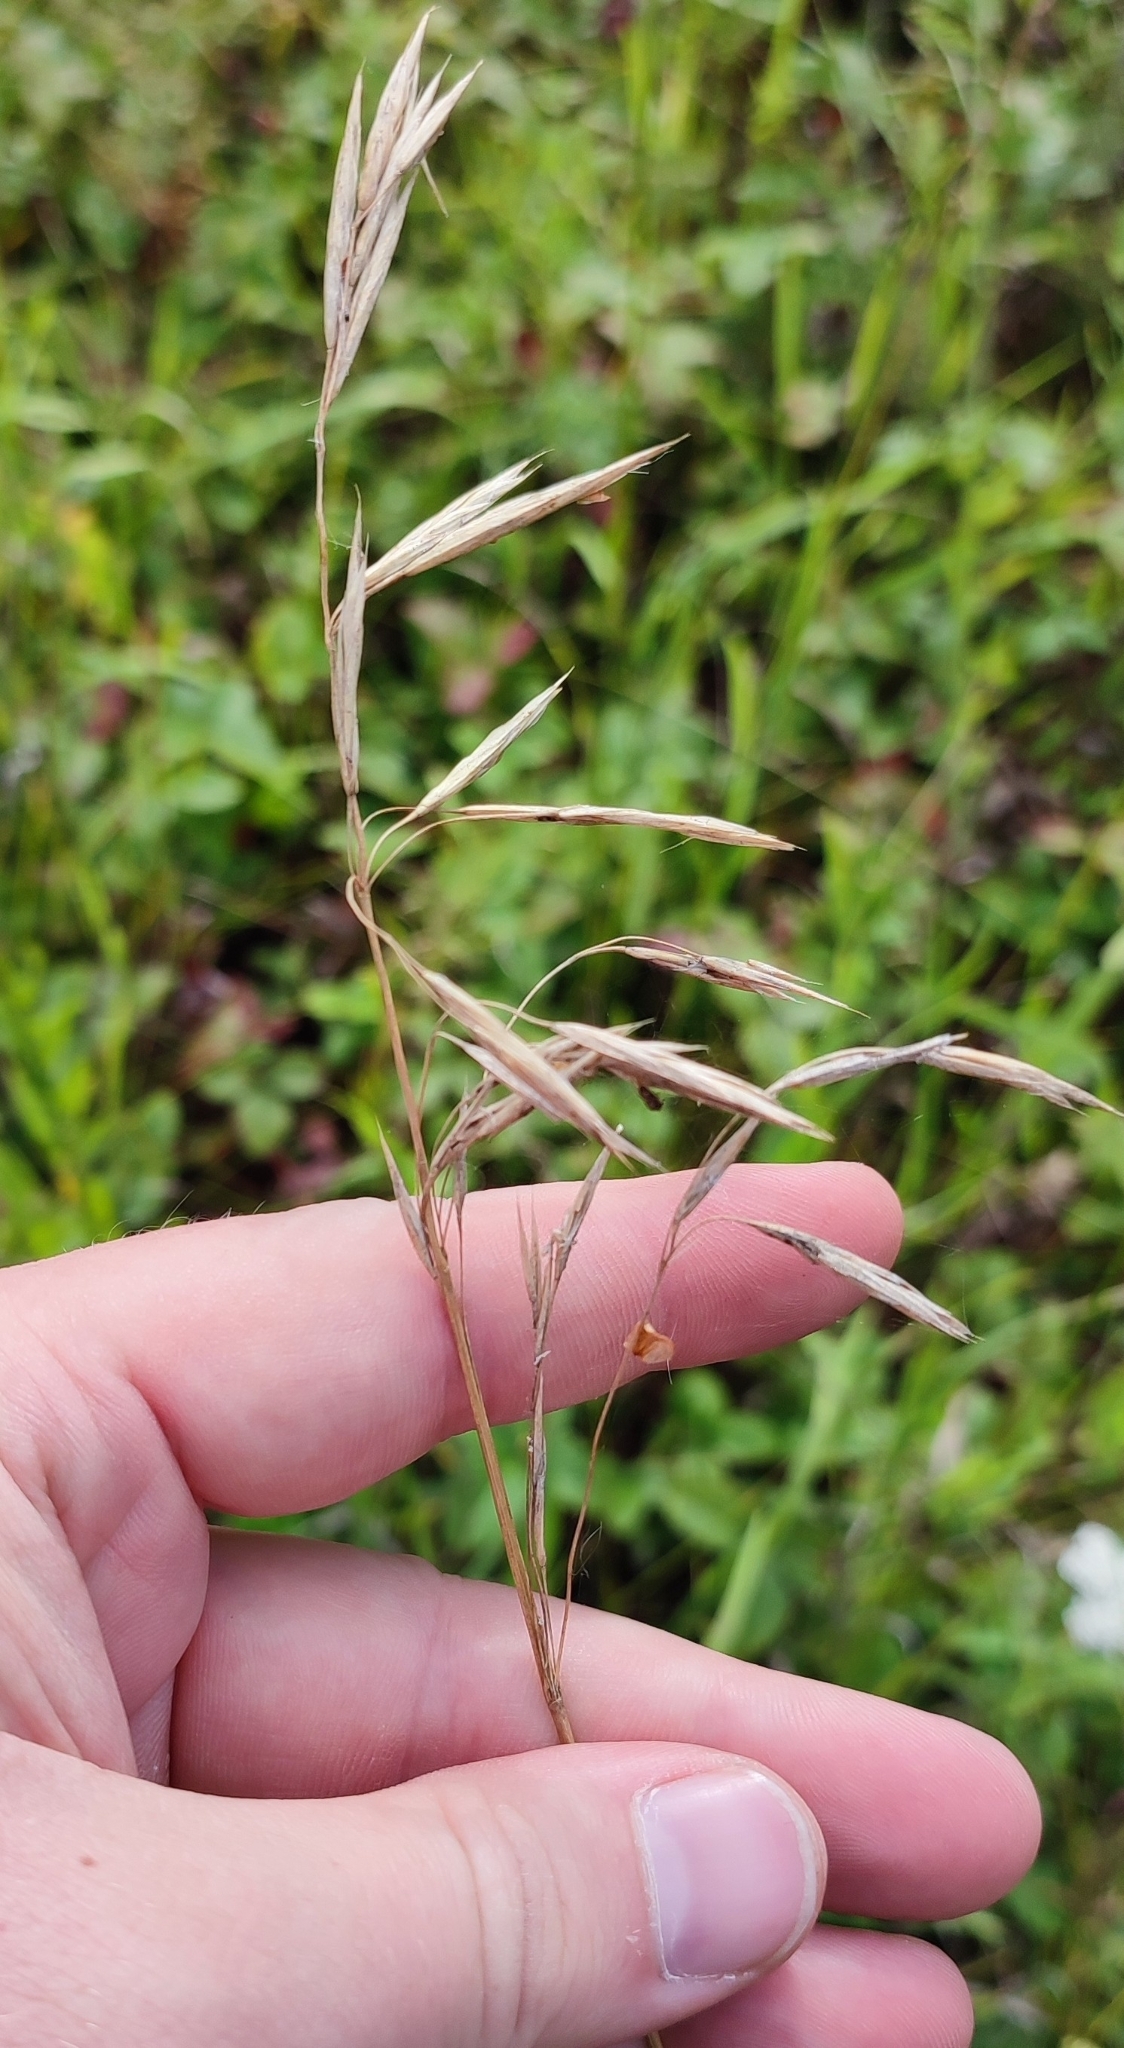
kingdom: Plantae
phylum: Tracheophyta
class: Liliopsida
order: Poales
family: Poaceae
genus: Bromus
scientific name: Bromus inermis
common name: Smooth brome
